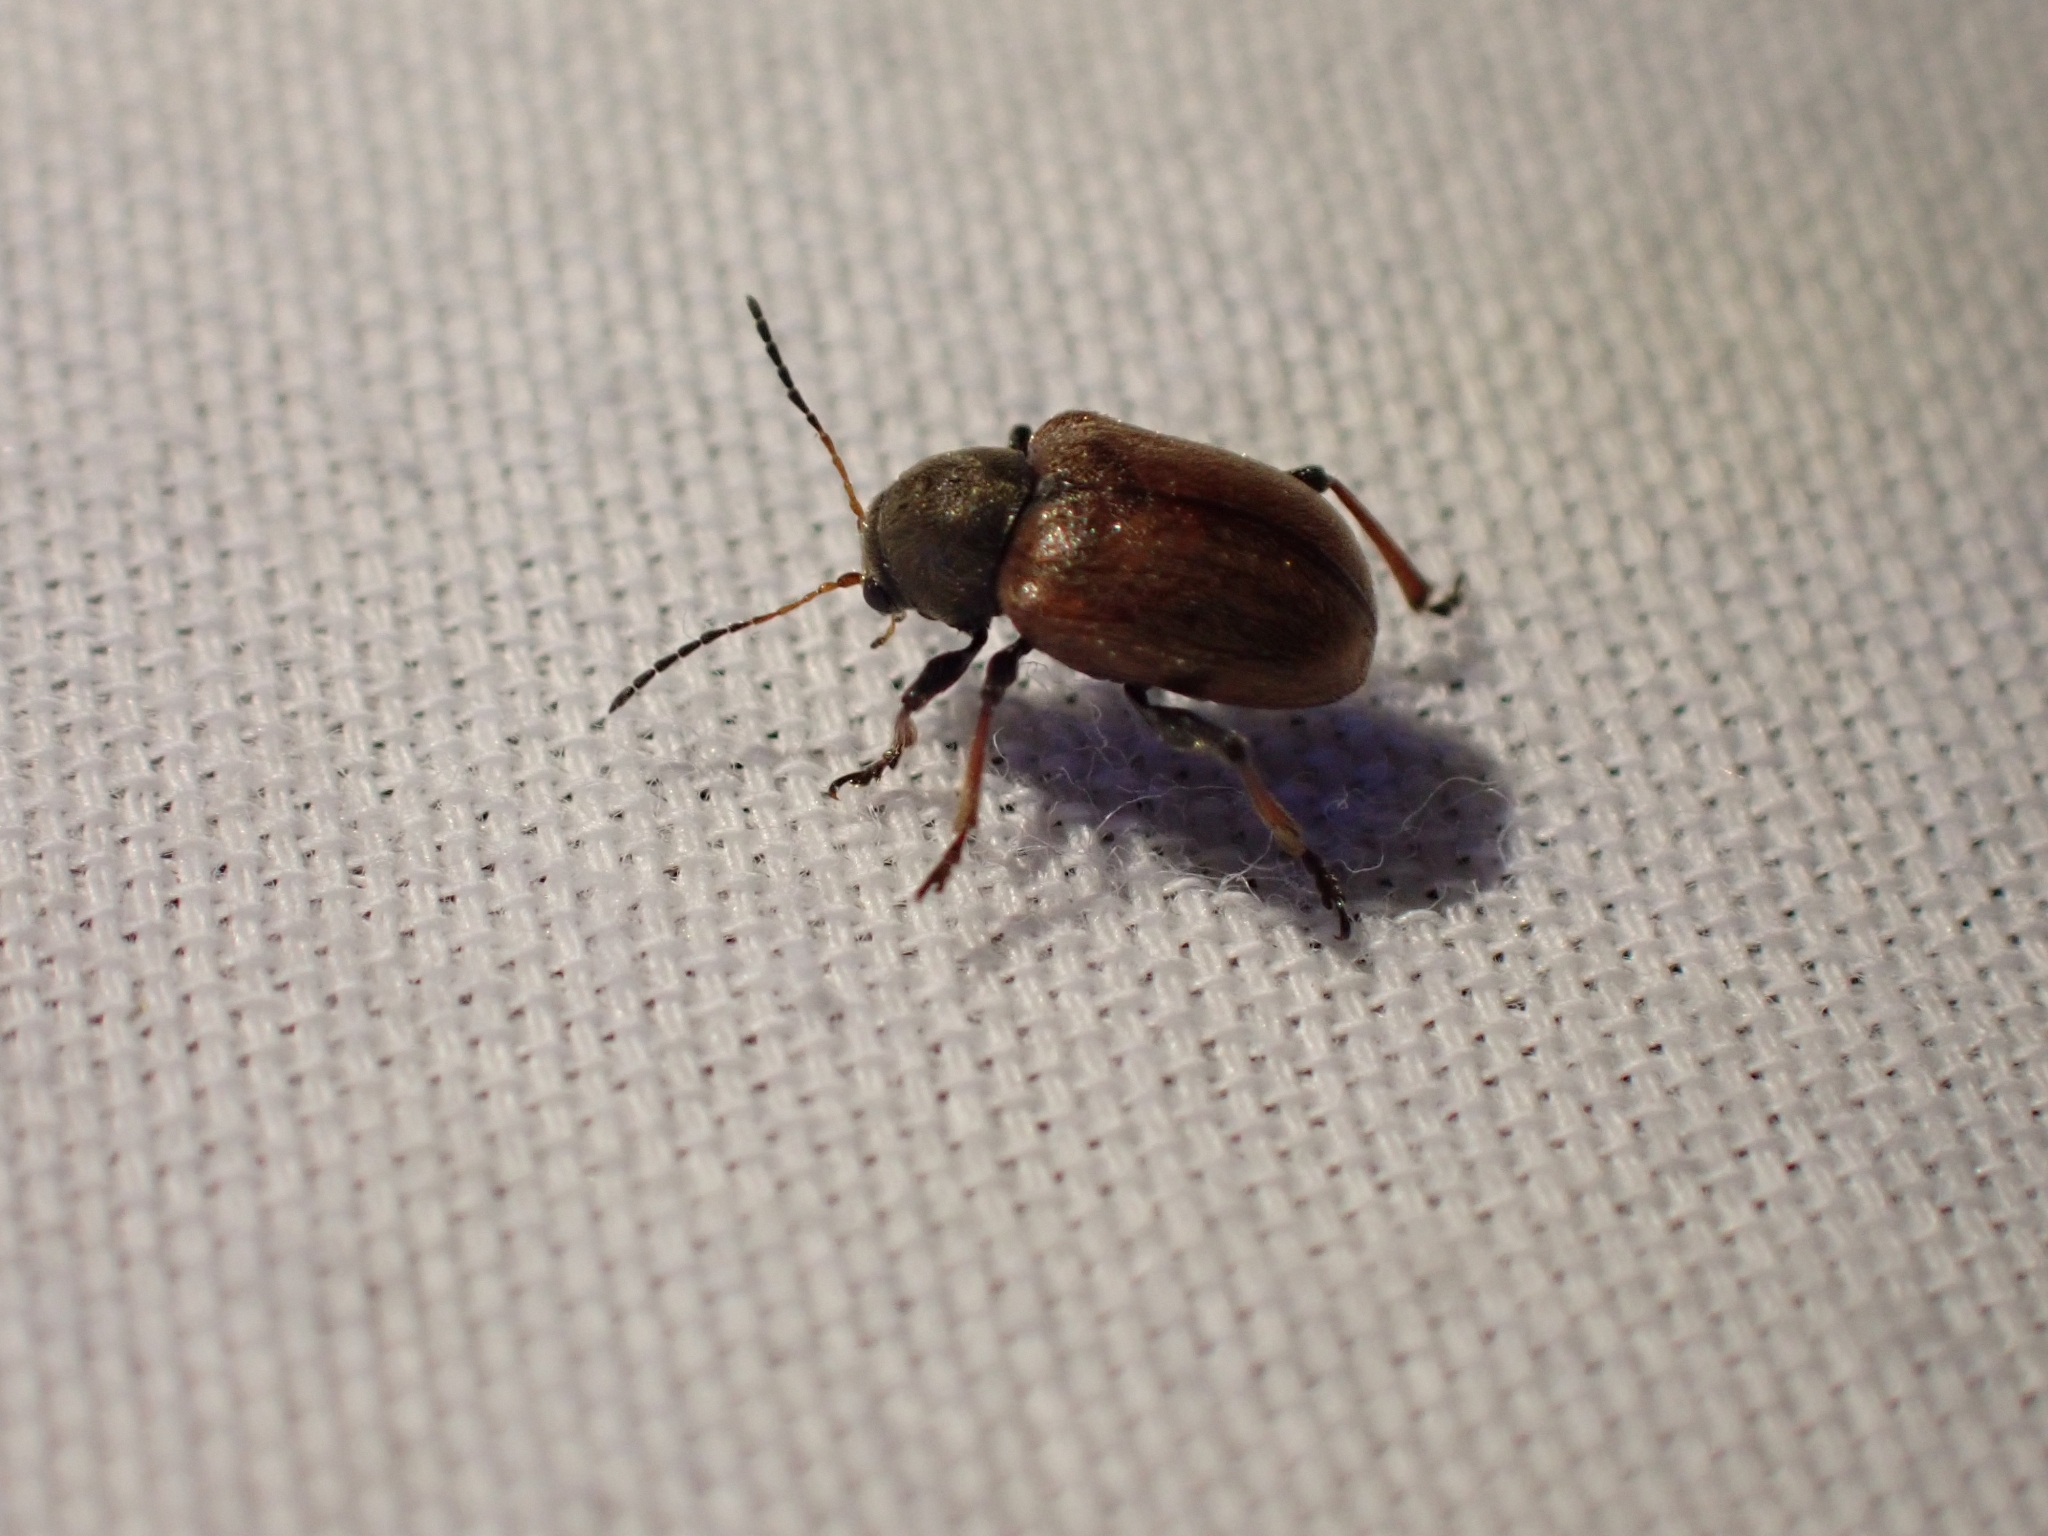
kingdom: Animalia
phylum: Arthropoda
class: Insecta
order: Coleoptera
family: Chrysomelidae
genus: Bromius
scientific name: Bromius obscurus
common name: Western grape rootworm
